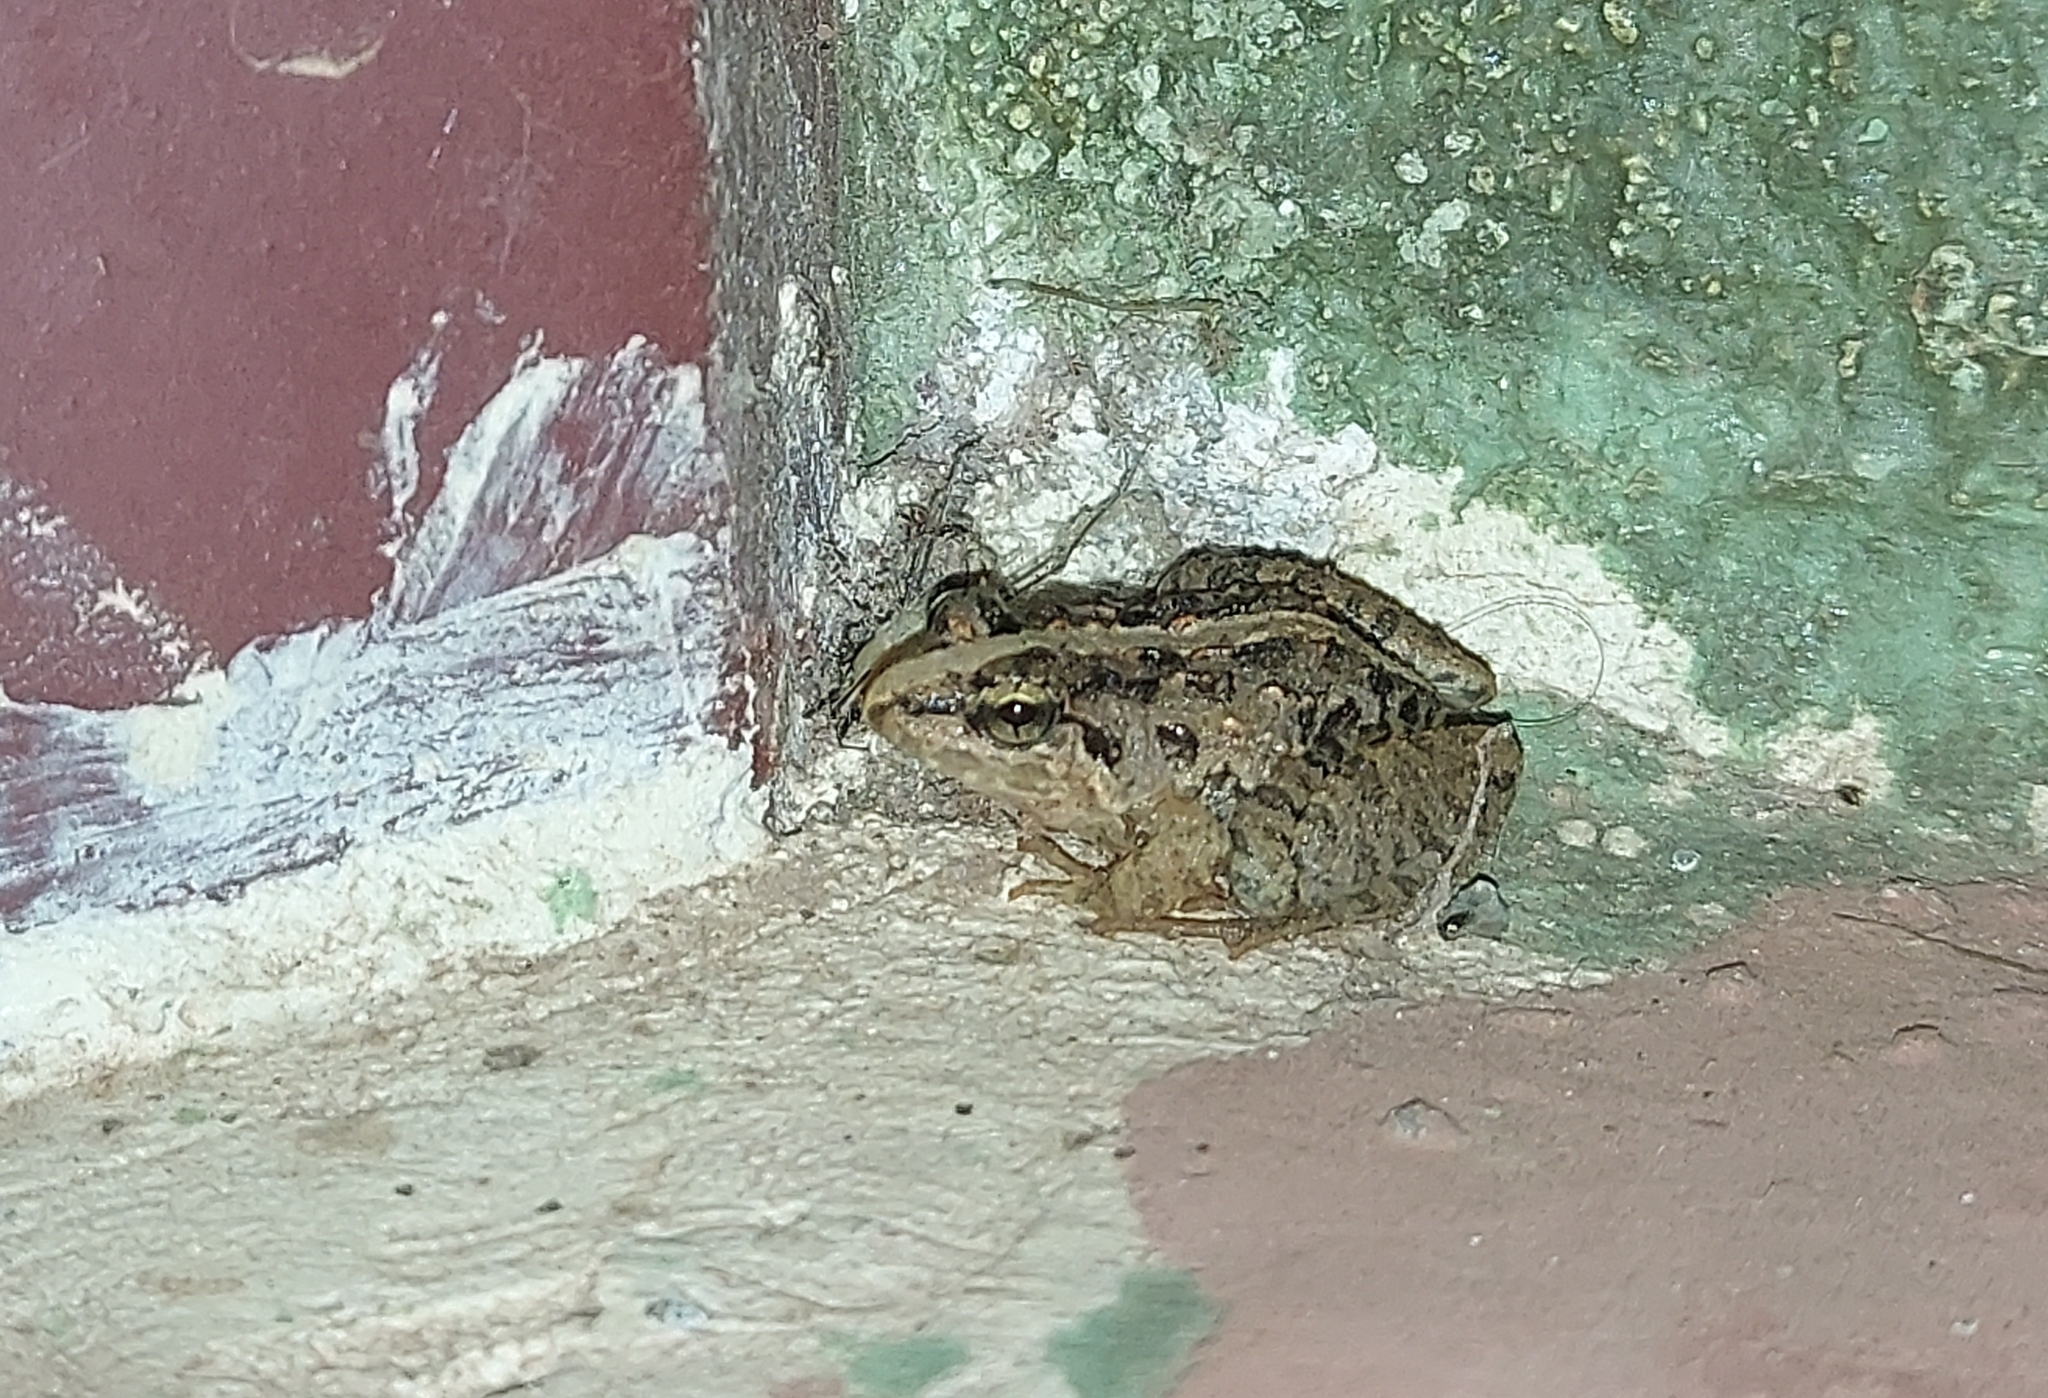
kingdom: Animalia
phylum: Chordata
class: Amphibia
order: Anura
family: Dicroglossidae
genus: Fejervarya
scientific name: Fejervarya limnocharis
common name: Asian grass frog/common pond frog/field frog/grass frog/indian rice frog
